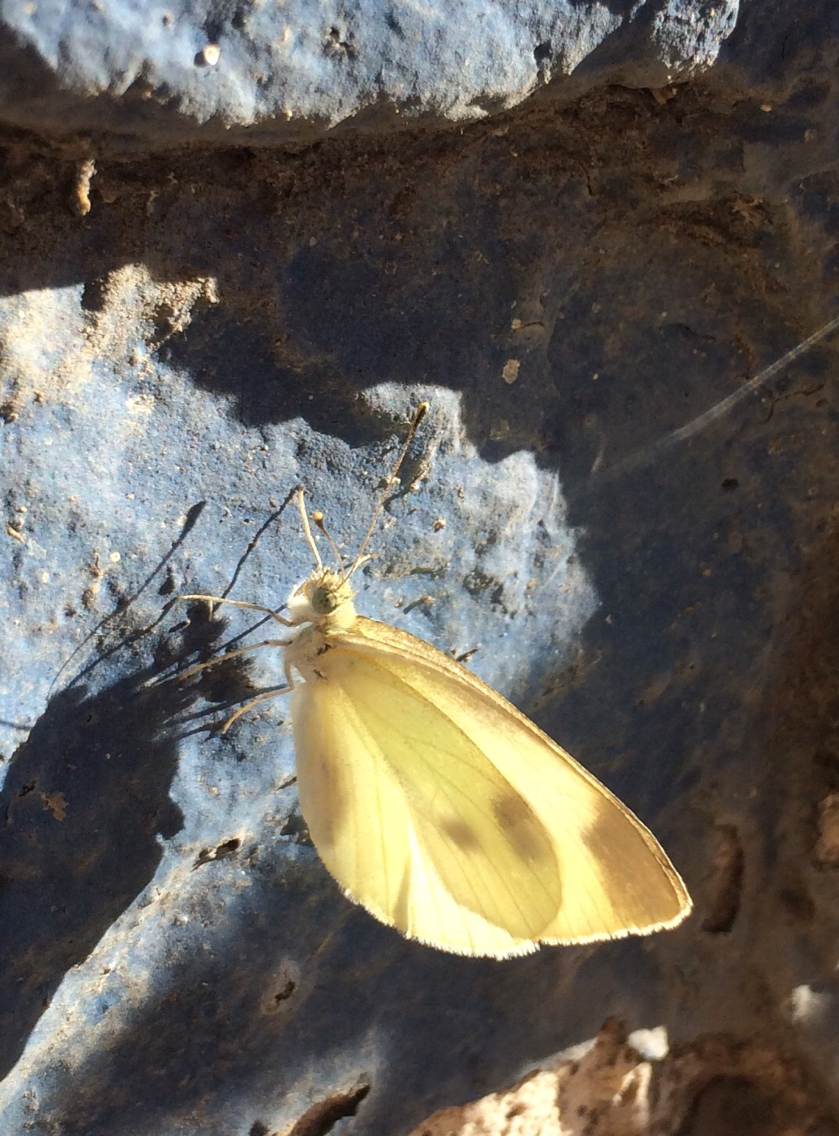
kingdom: Animalia
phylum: Arthropoda
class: Insecta
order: Lepidoptera
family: Pieridae
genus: Pieris
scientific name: Pieris rapae
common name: Small white
